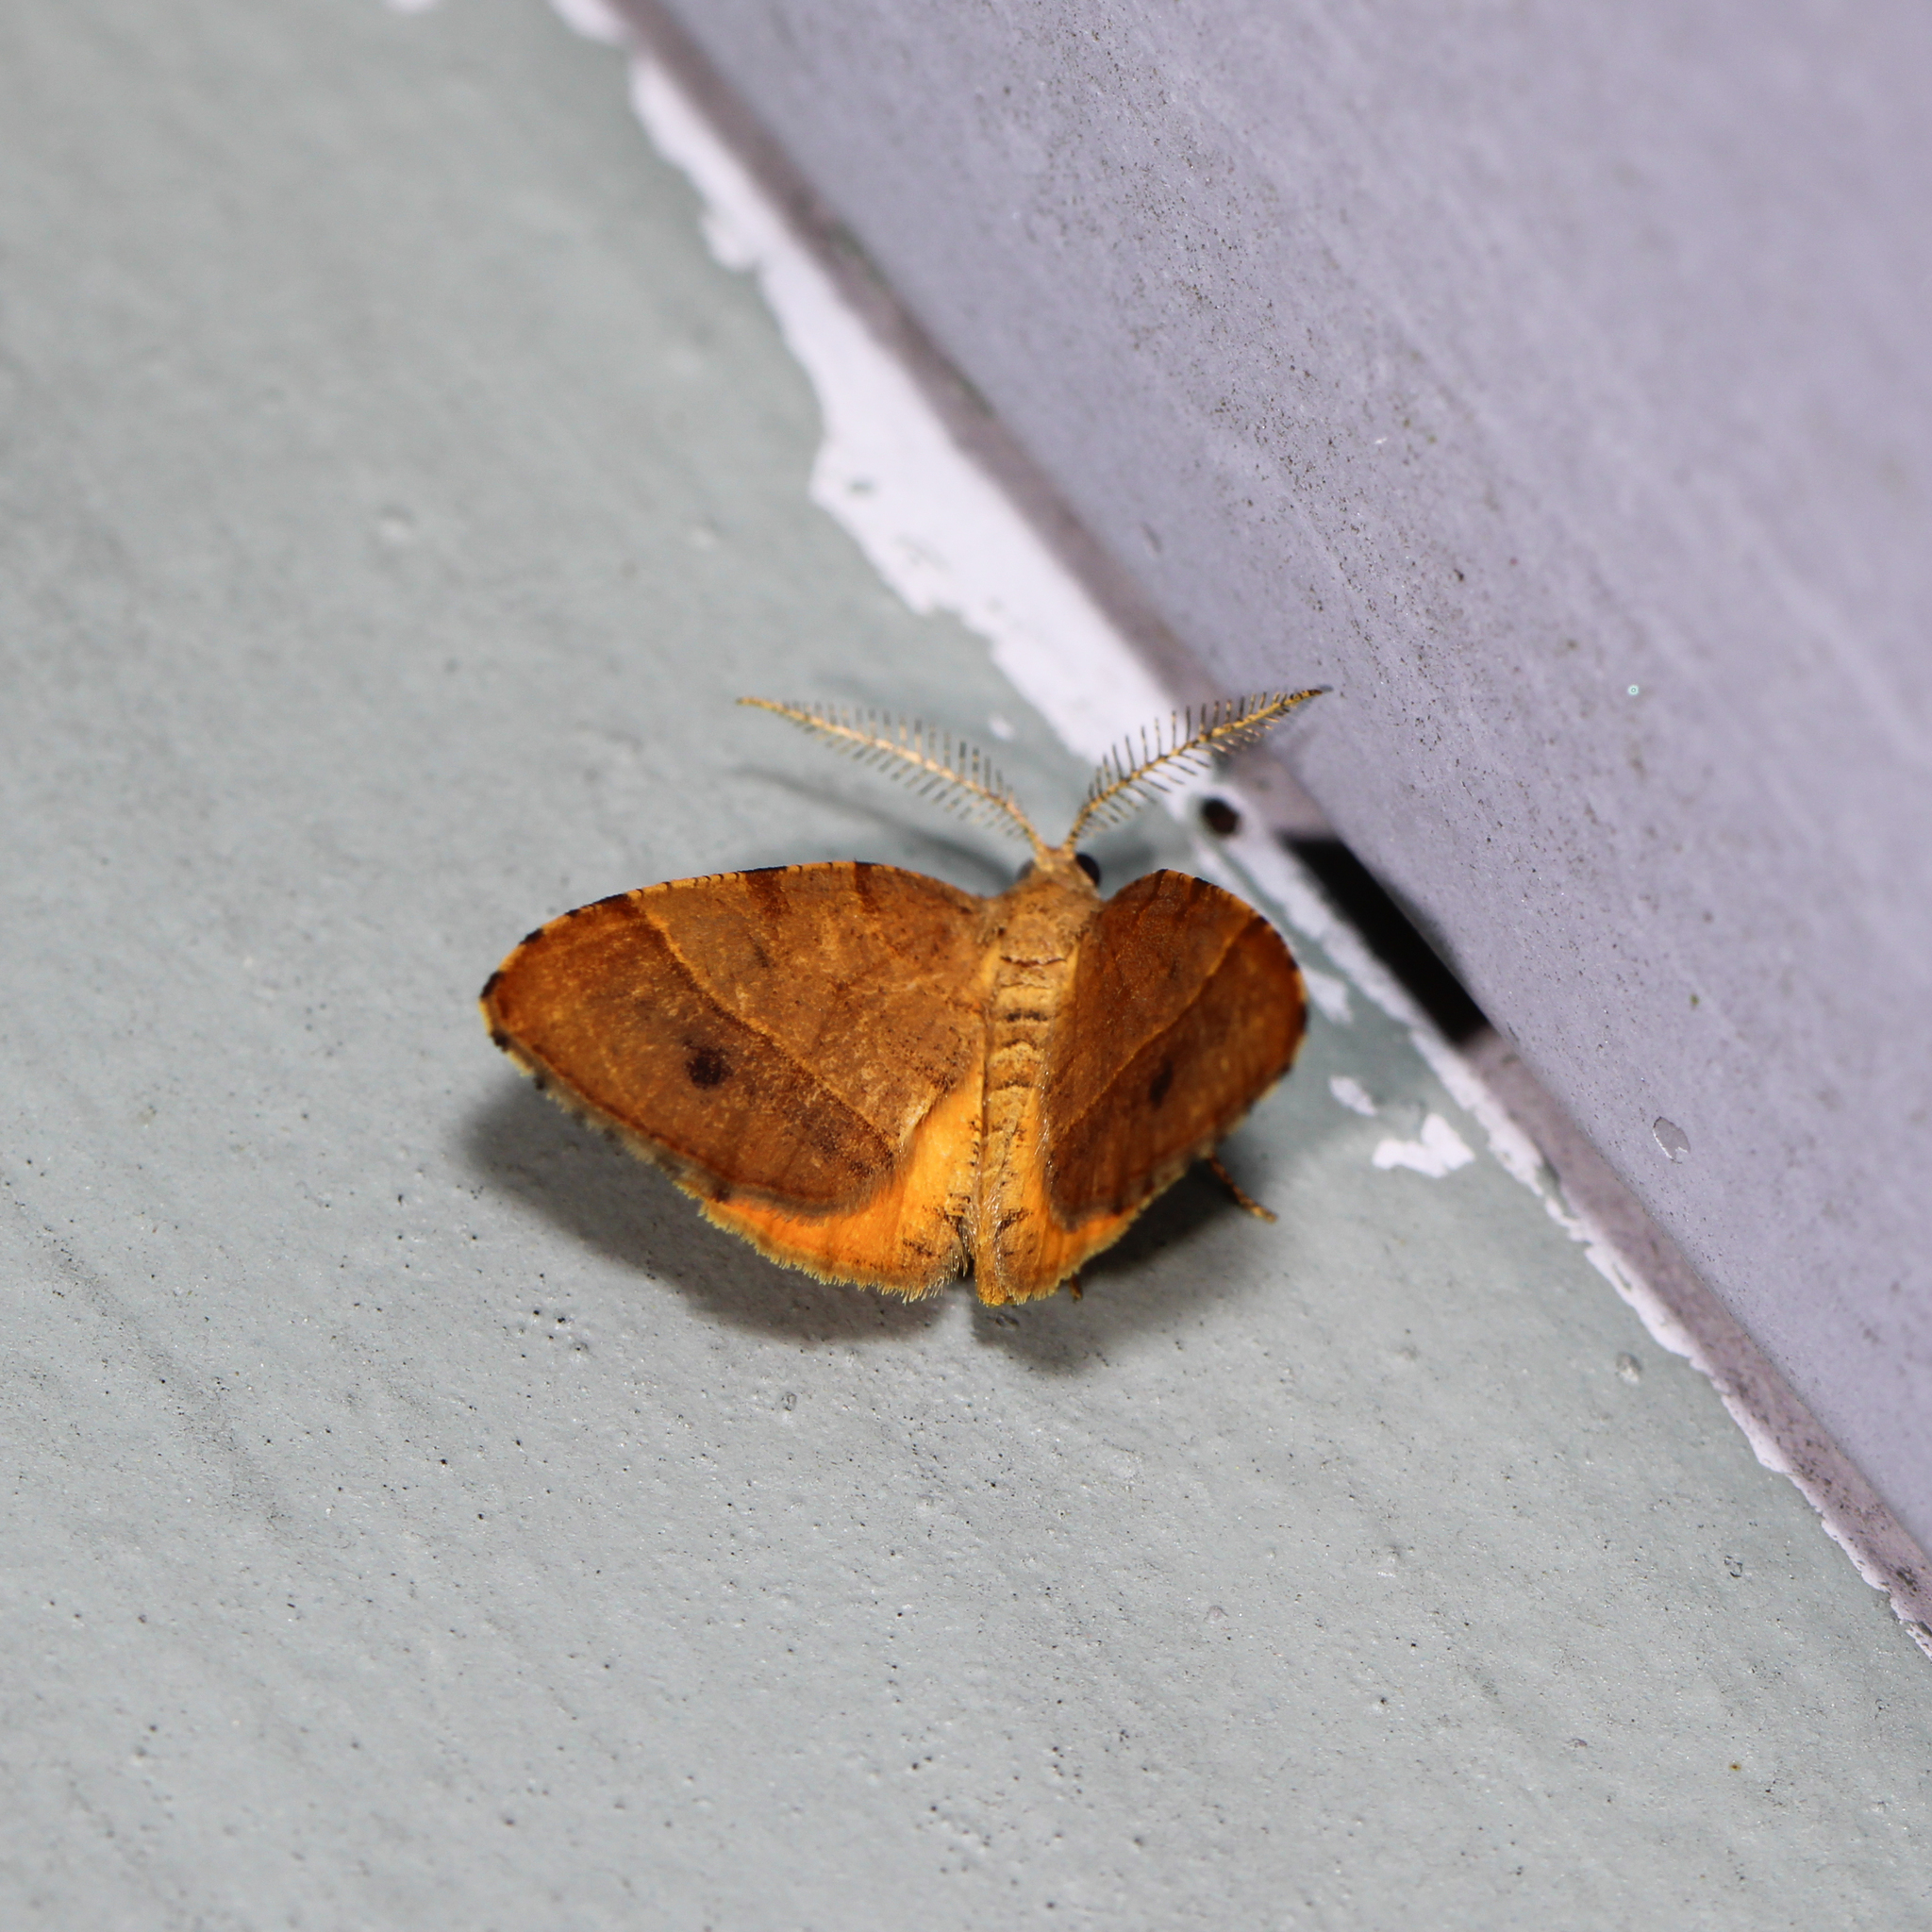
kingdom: Animalia
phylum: Arthropoda
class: Insecta
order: Lepidoptera
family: Geometridae
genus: Mellilla
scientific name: Mellilla xanthometata
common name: Orange wing moth
